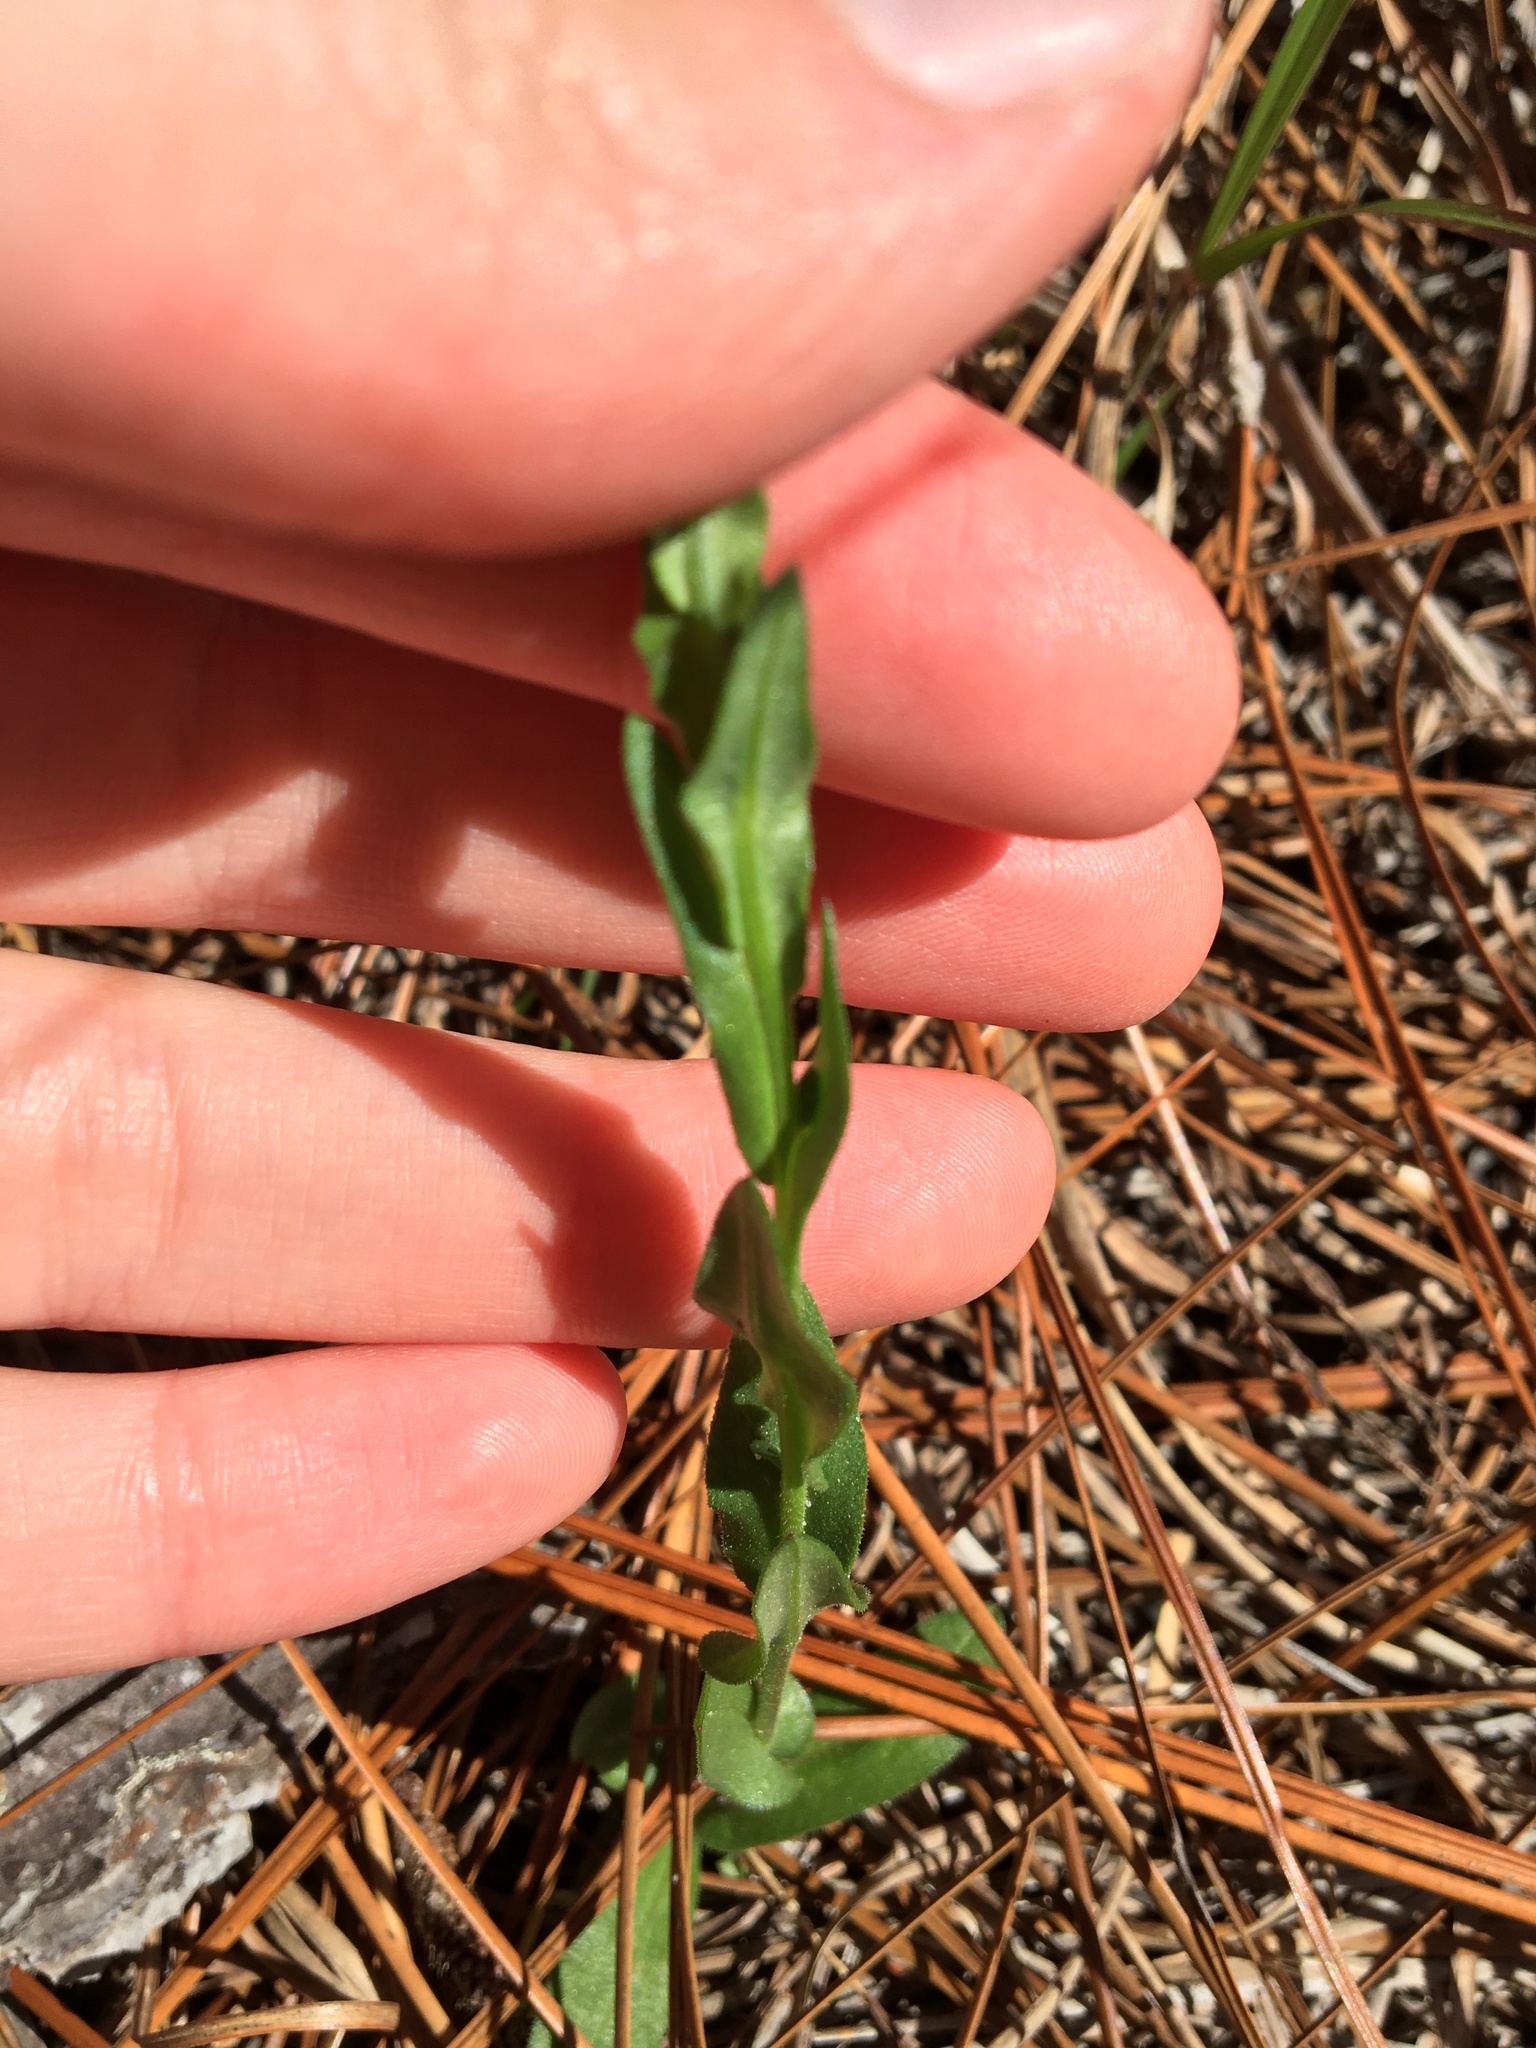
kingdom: Plantae
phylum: Tracheophyta
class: Magnoliopsida
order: Asterales
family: Asteraceae
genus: Symphyotrichum
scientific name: Symphyotrichum adnatum
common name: Scale-leaf aster
